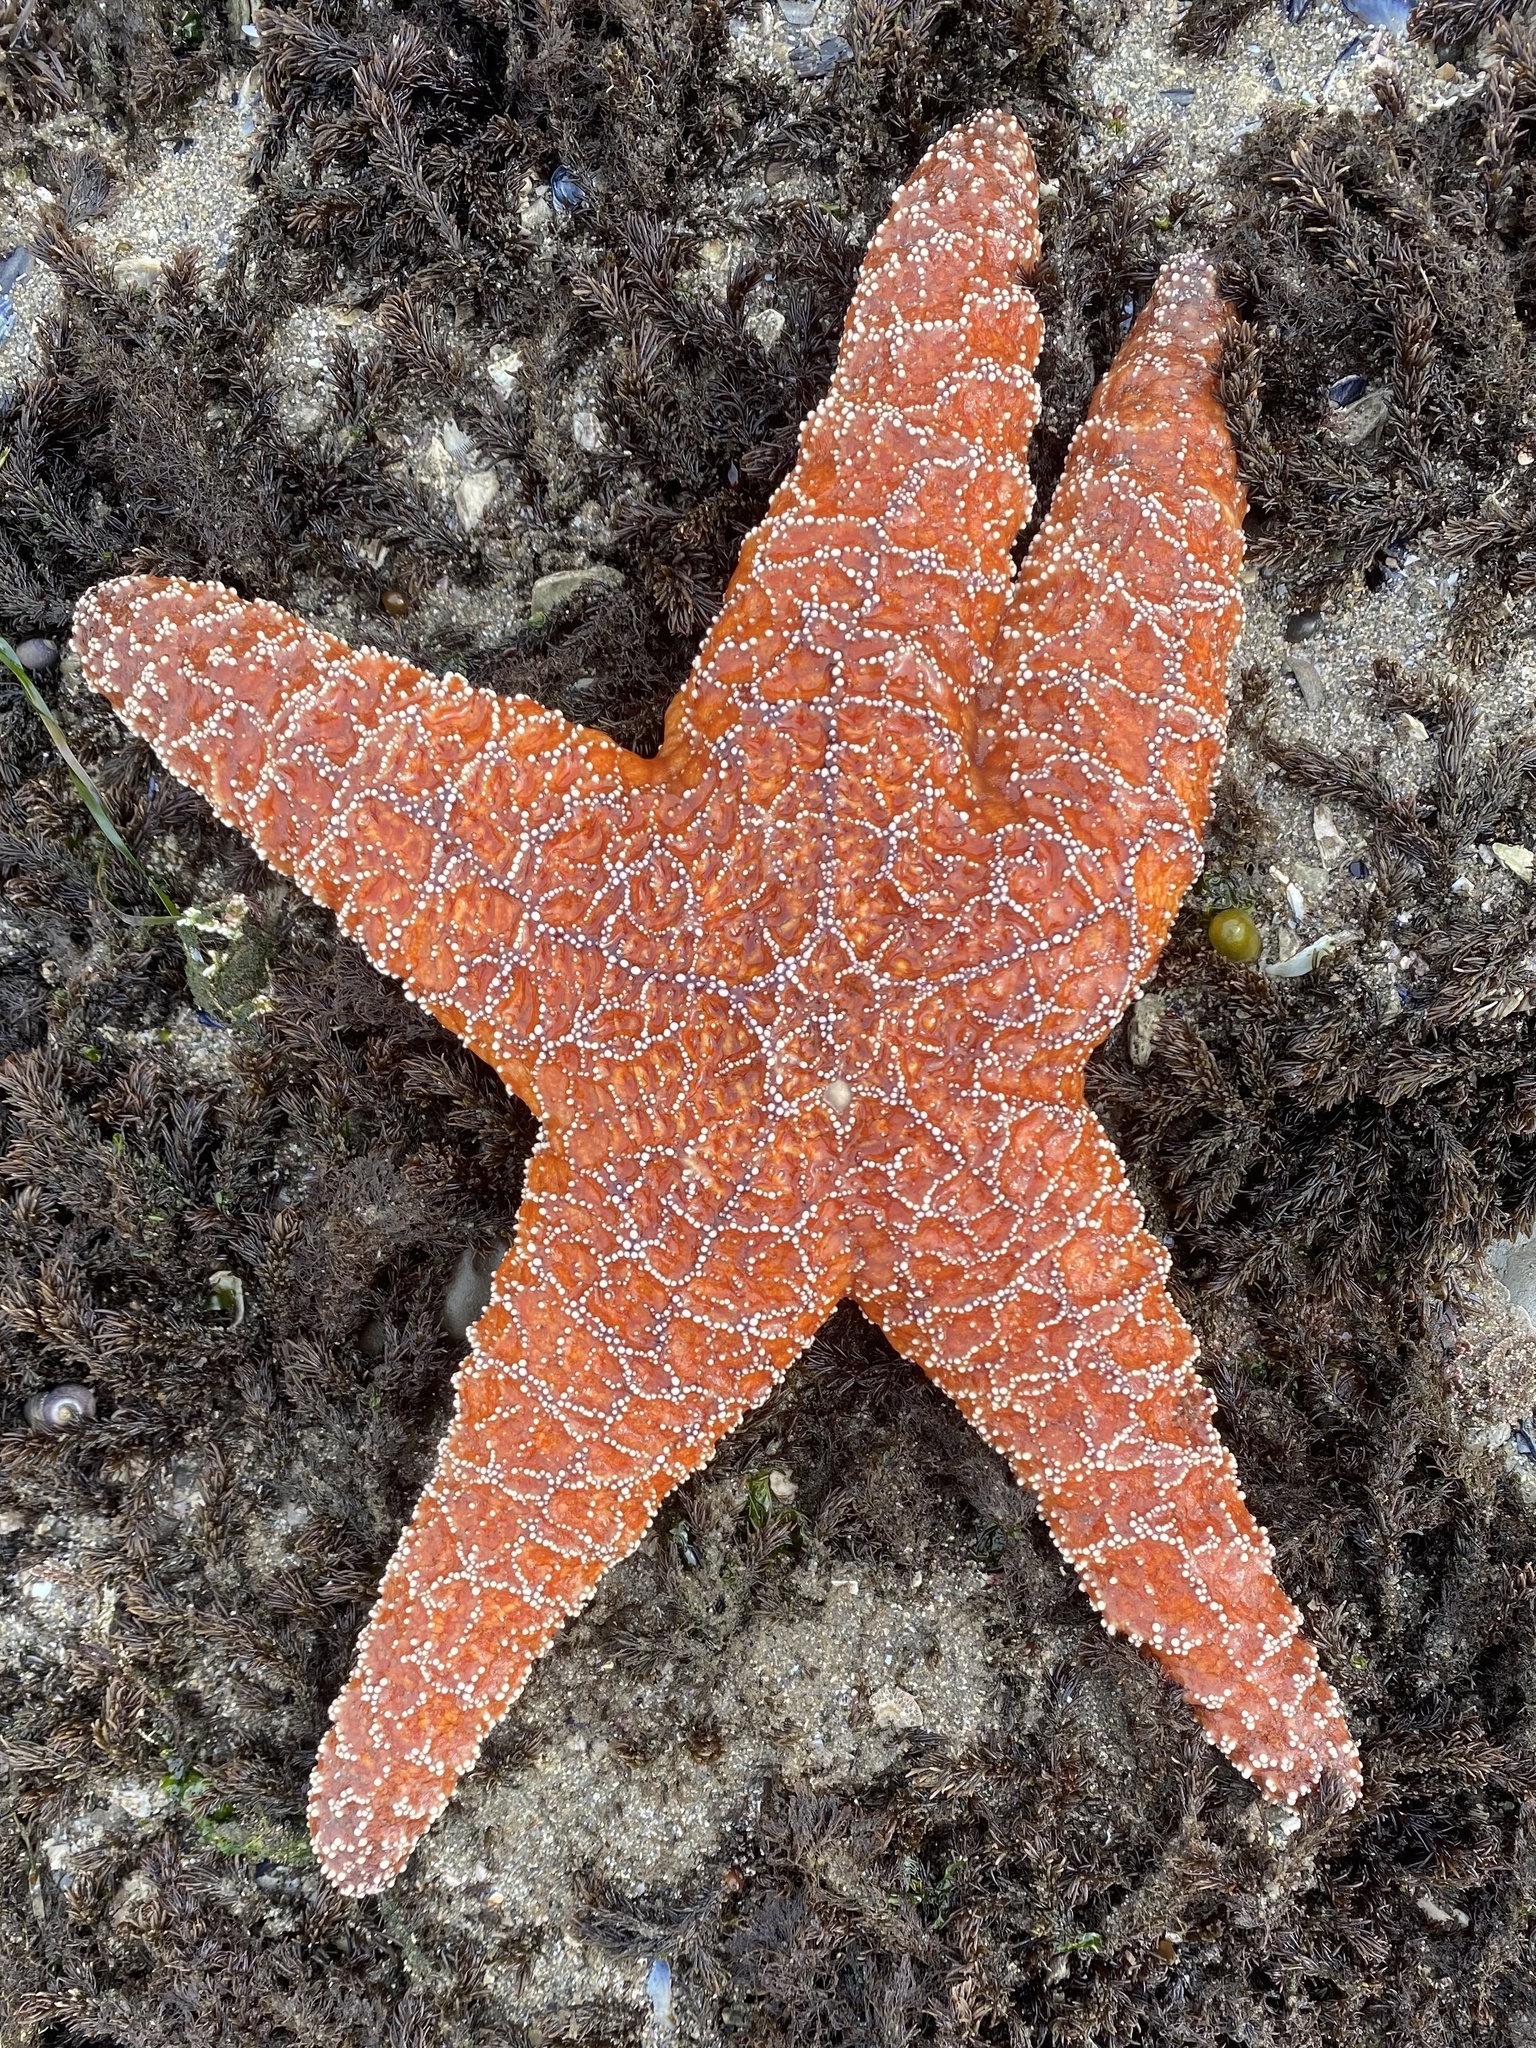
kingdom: Animalia
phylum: Echinodermata
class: Asteroidea
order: Forcipulatida
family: Asteriidae
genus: Pisaster
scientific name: Pisaster ochraceus
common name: Ochre stars
